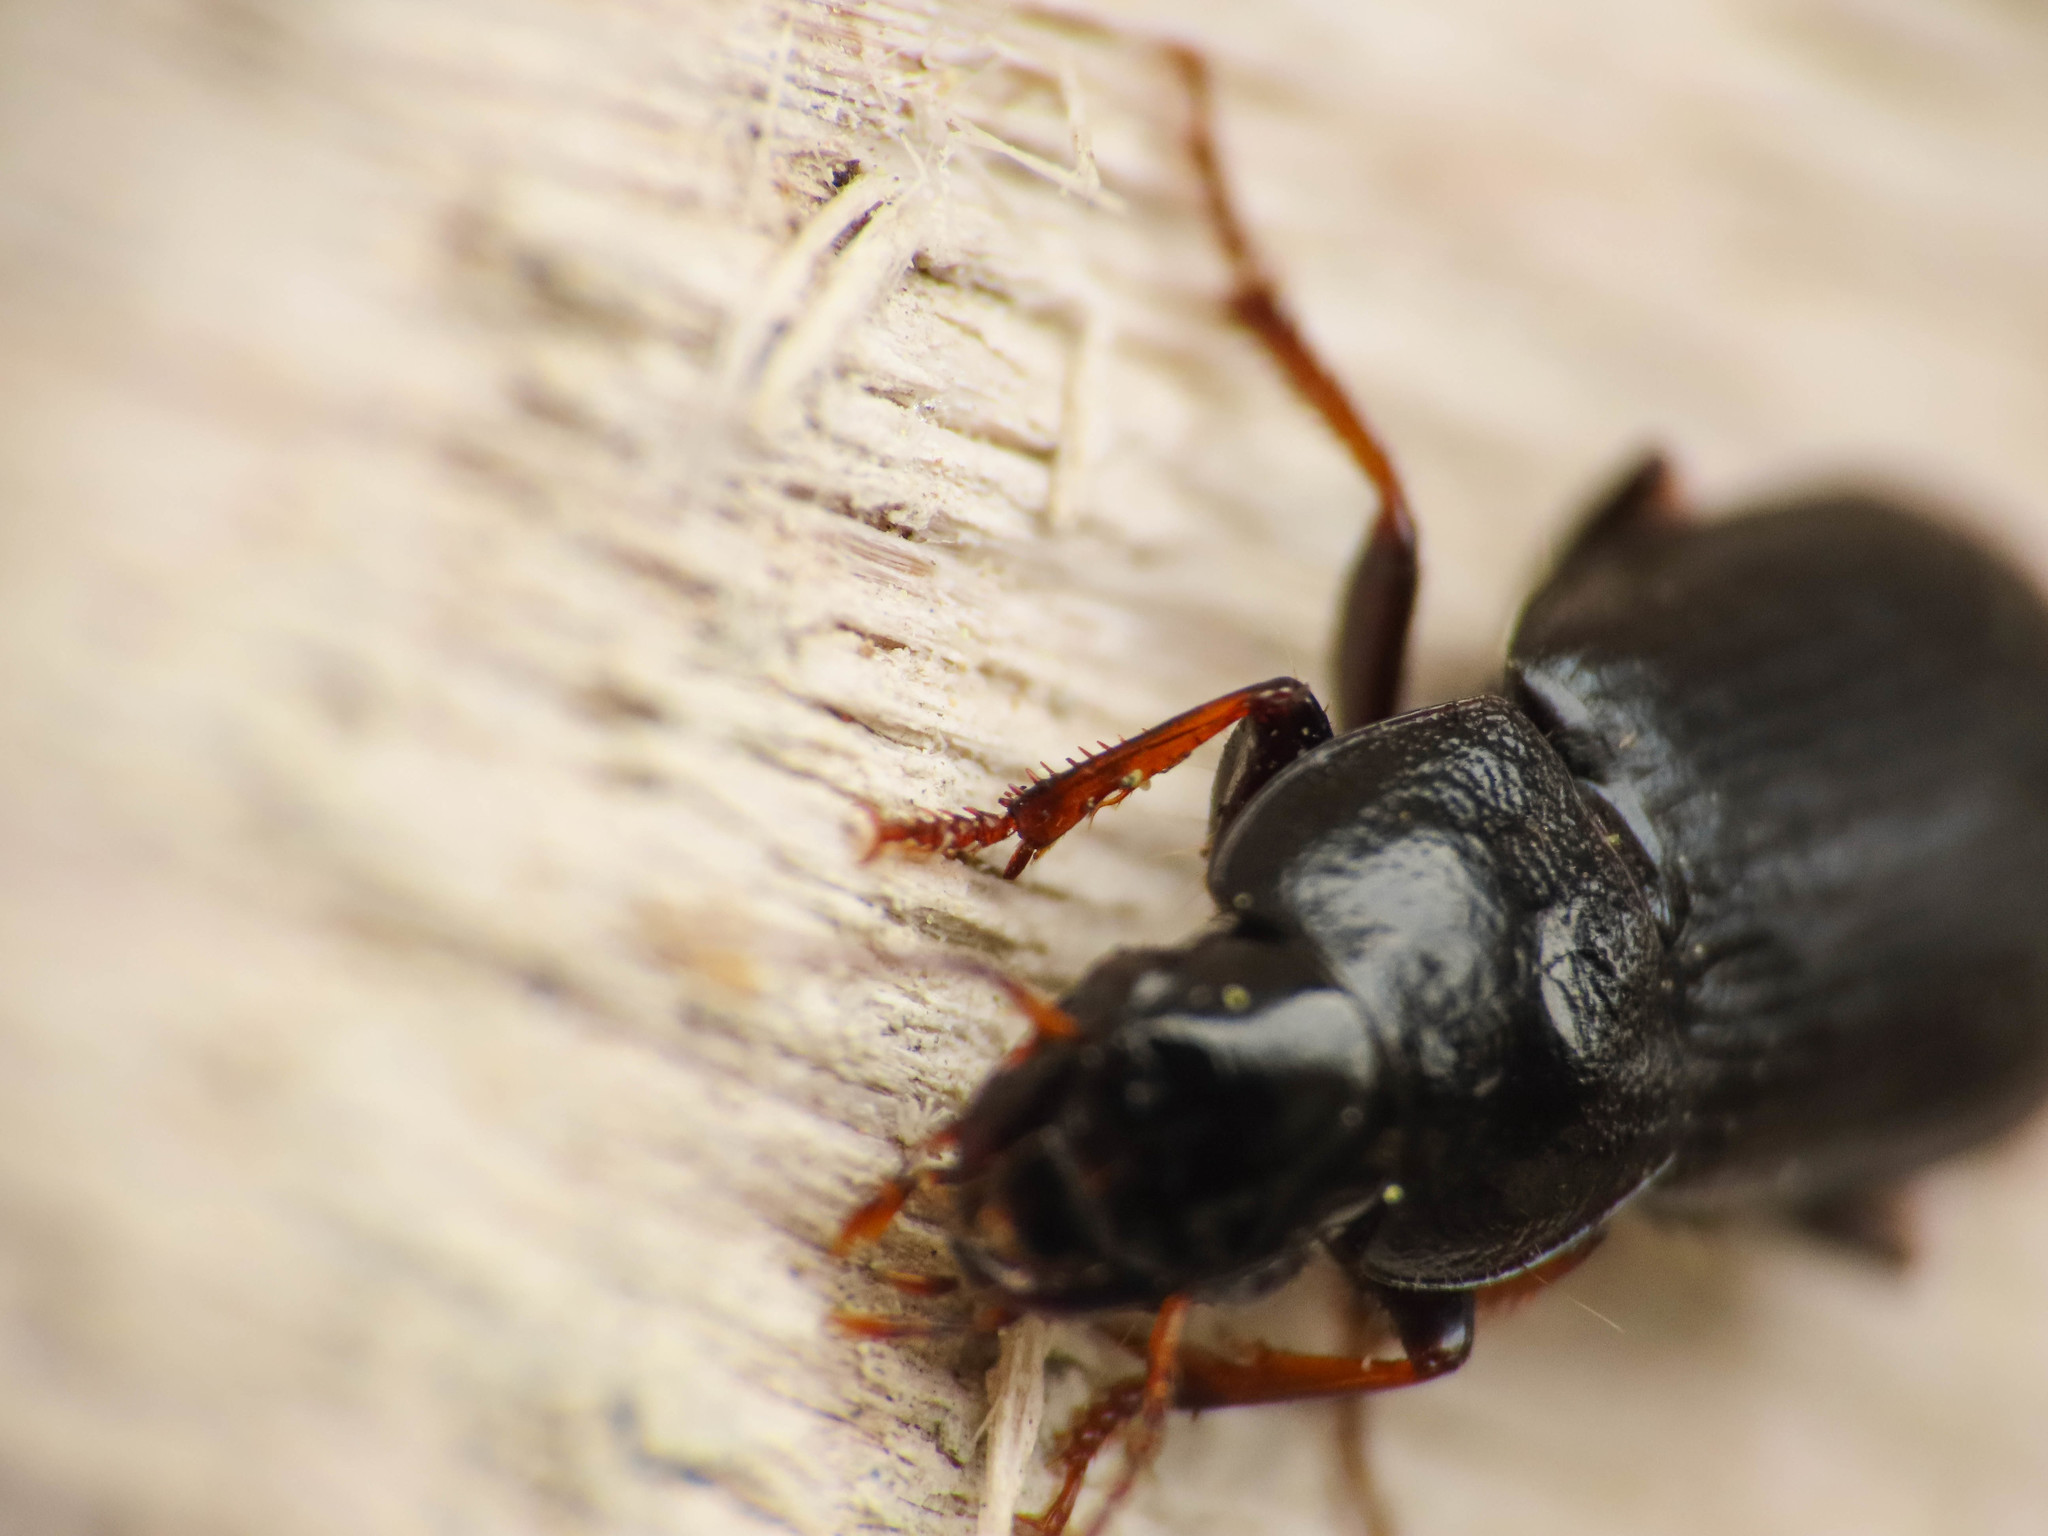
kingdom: Animalia
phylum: Arthropoda
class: Insecta
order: Coleoptera
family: Carabidae
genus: Harpalus
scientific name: Harpalus signaticornis
